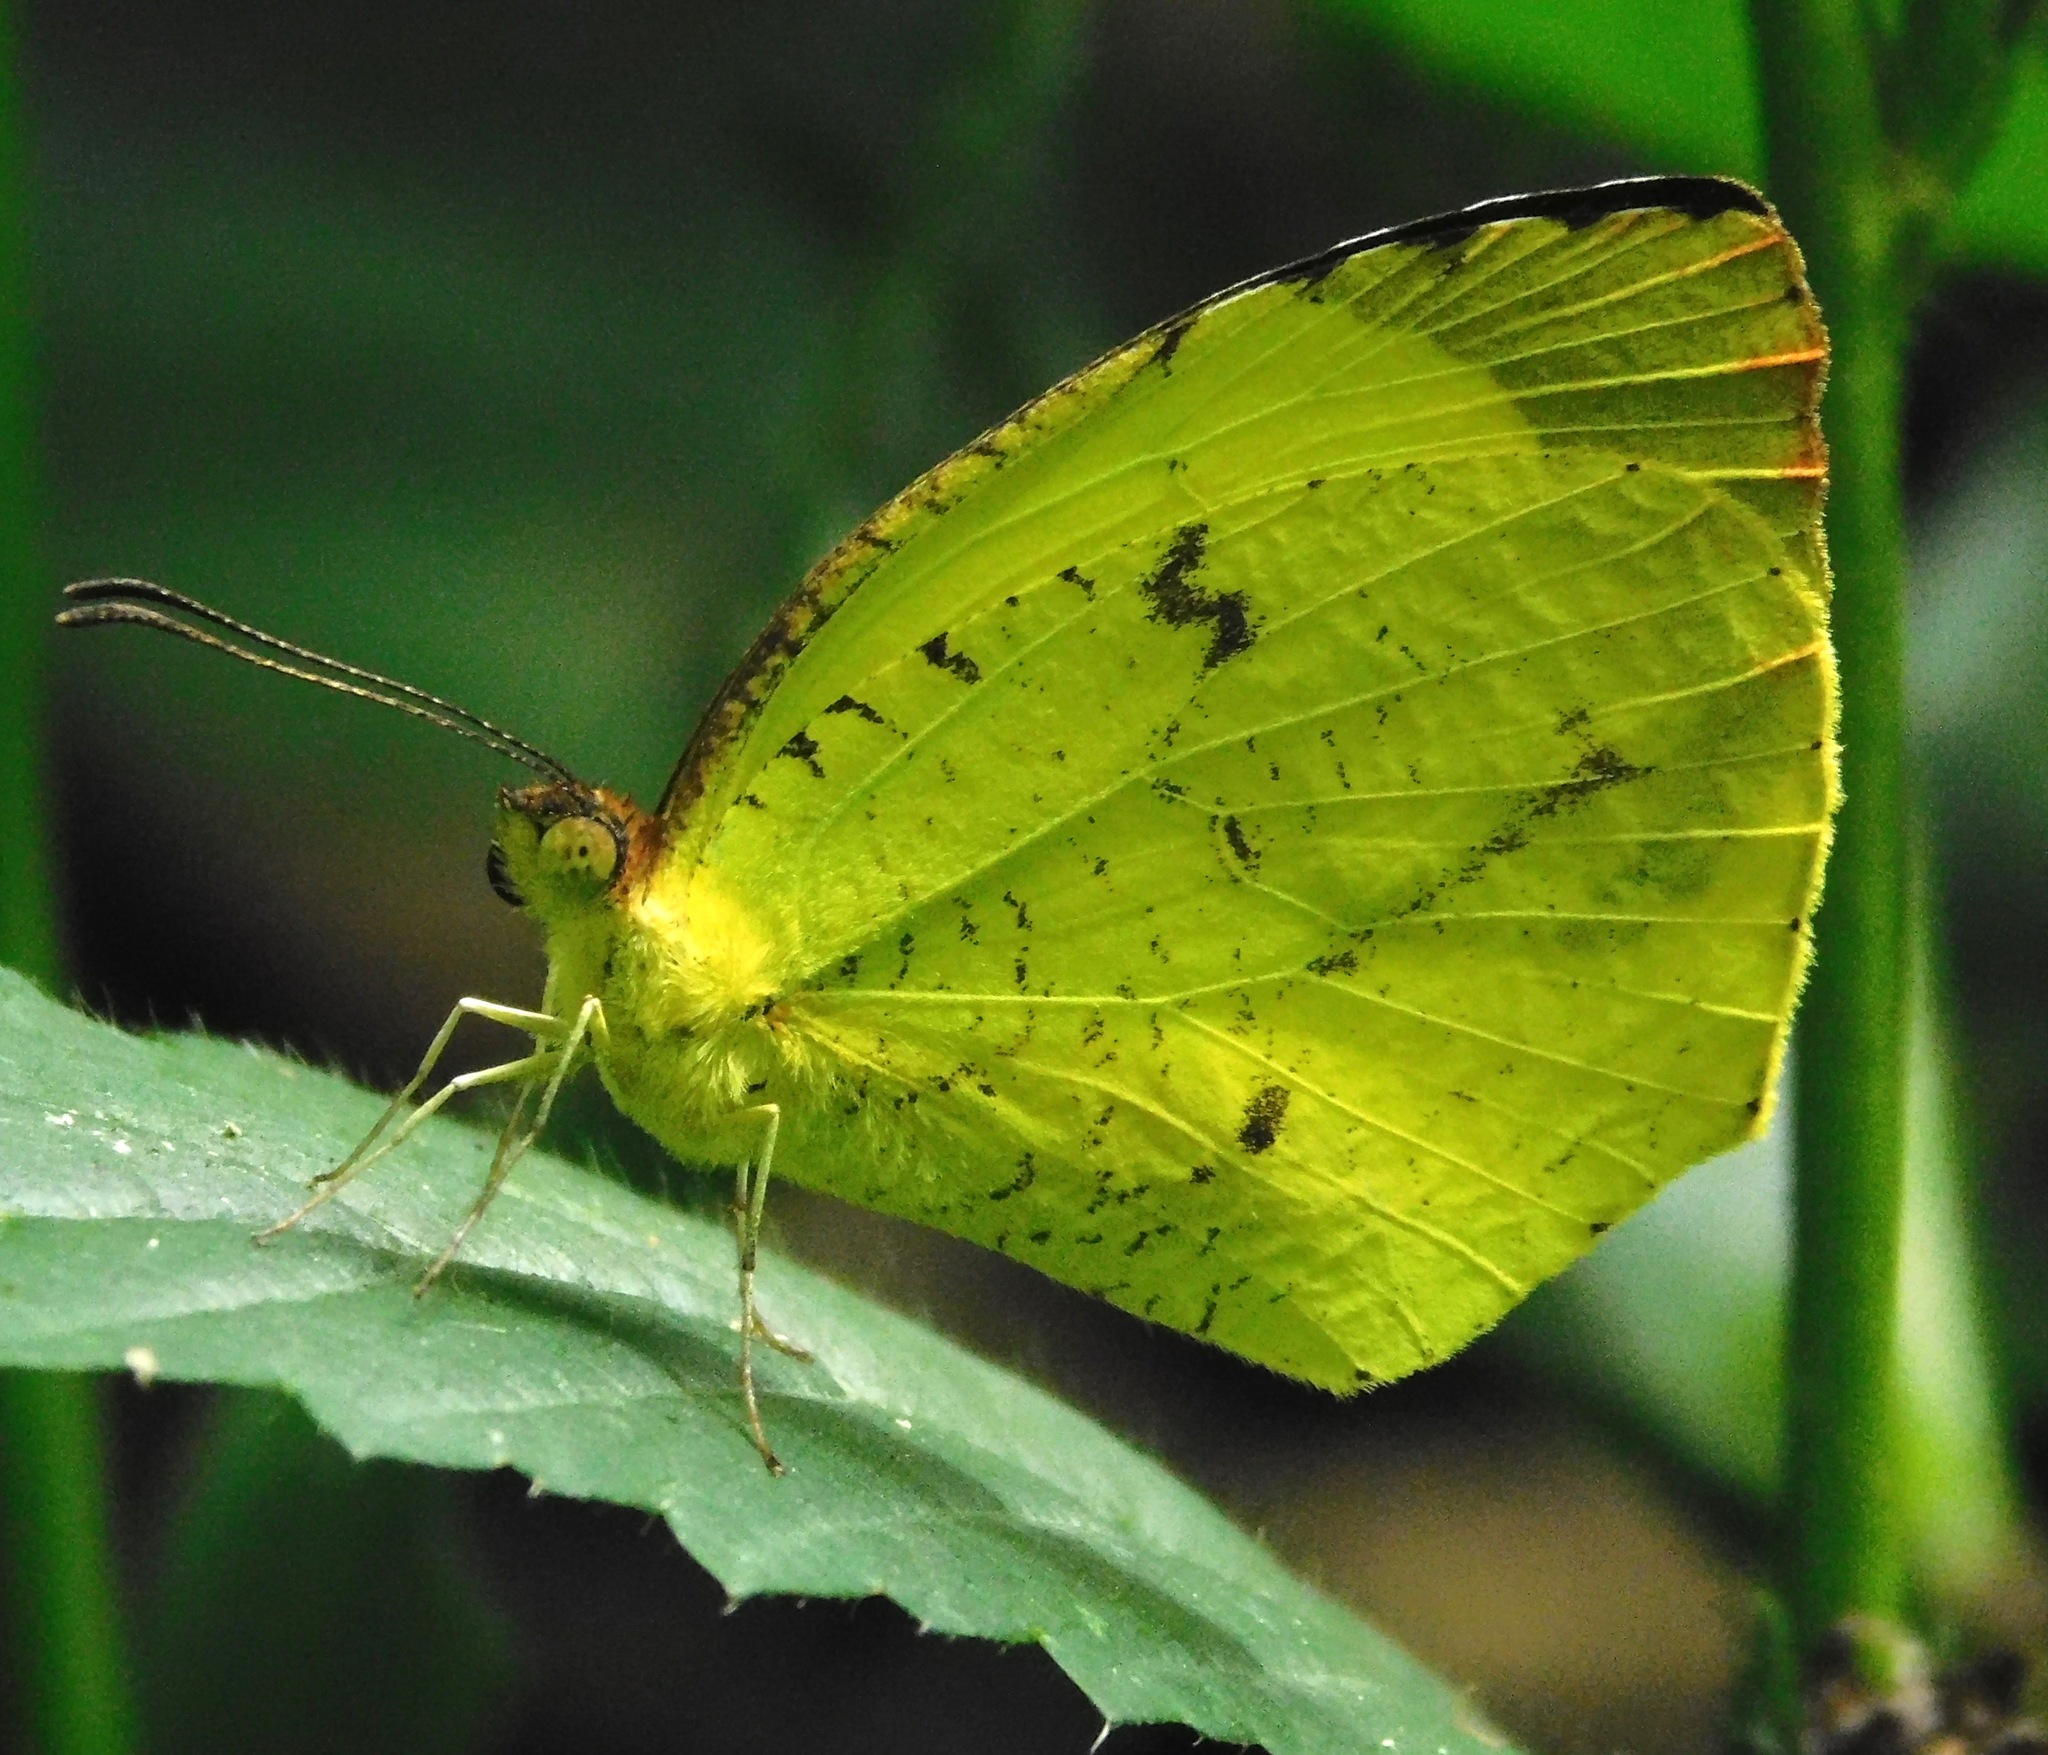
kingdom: Animalia
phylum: Arthropoda
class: Insecta
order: Lepidoptera
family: Pieridae
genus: Abaeis
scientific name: Abaeis
